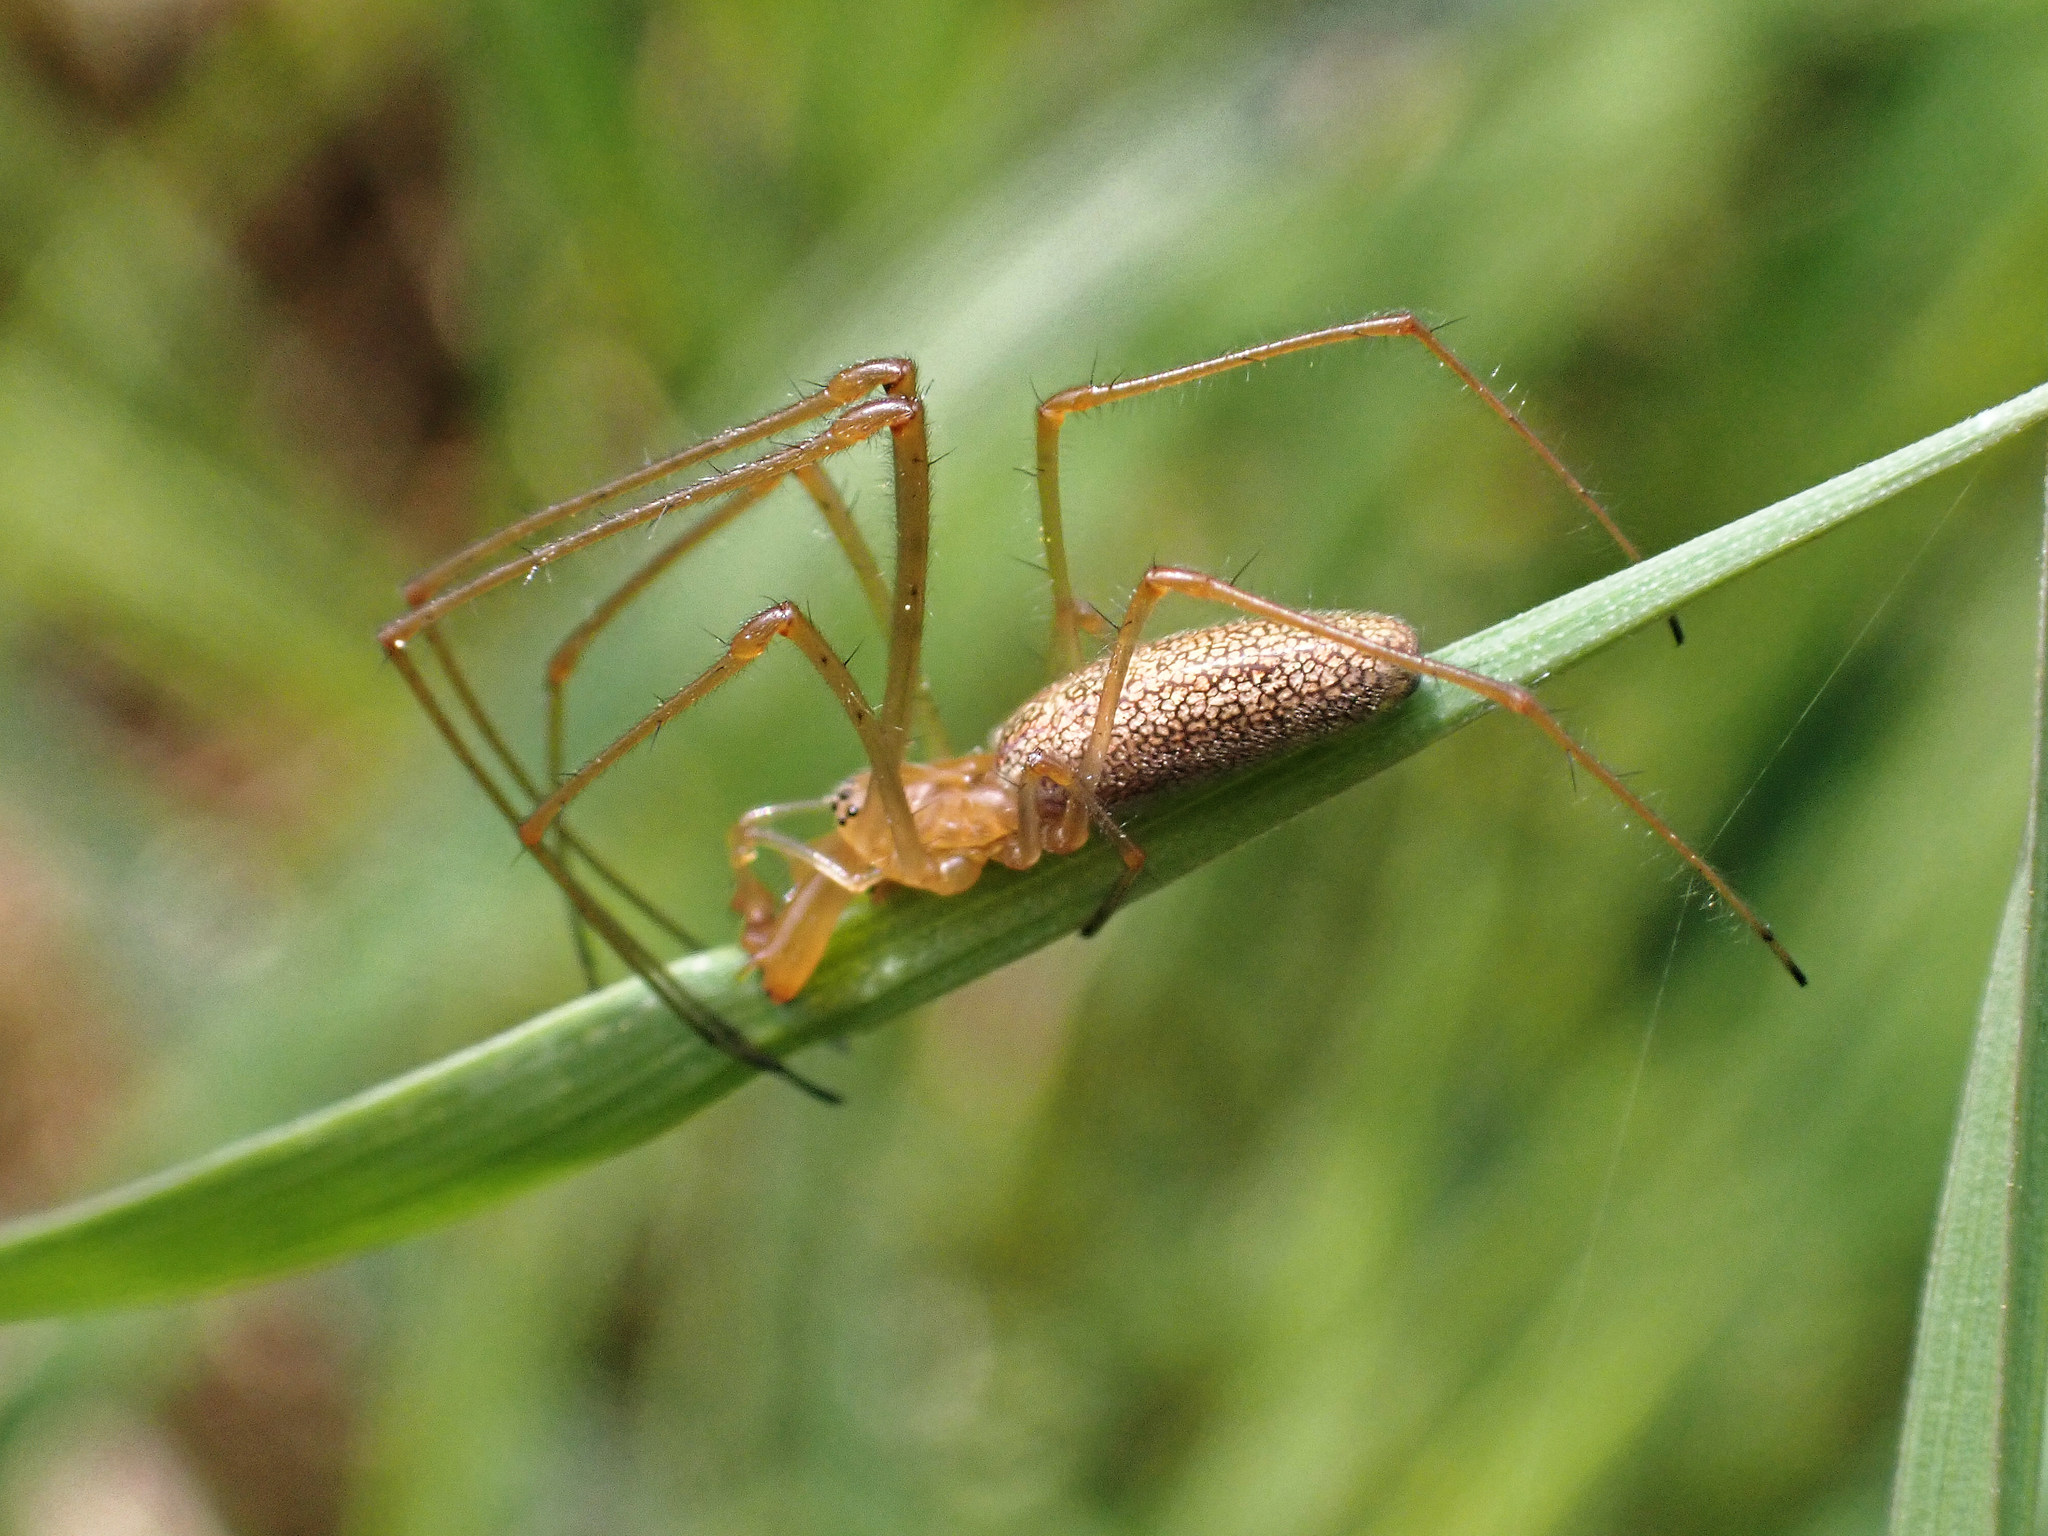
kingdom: Animalia
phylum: Arthropoda
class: Arachnida
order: Araneae
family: Tetragnathidae
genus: Tetragnatha
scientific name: Tetragnatha
